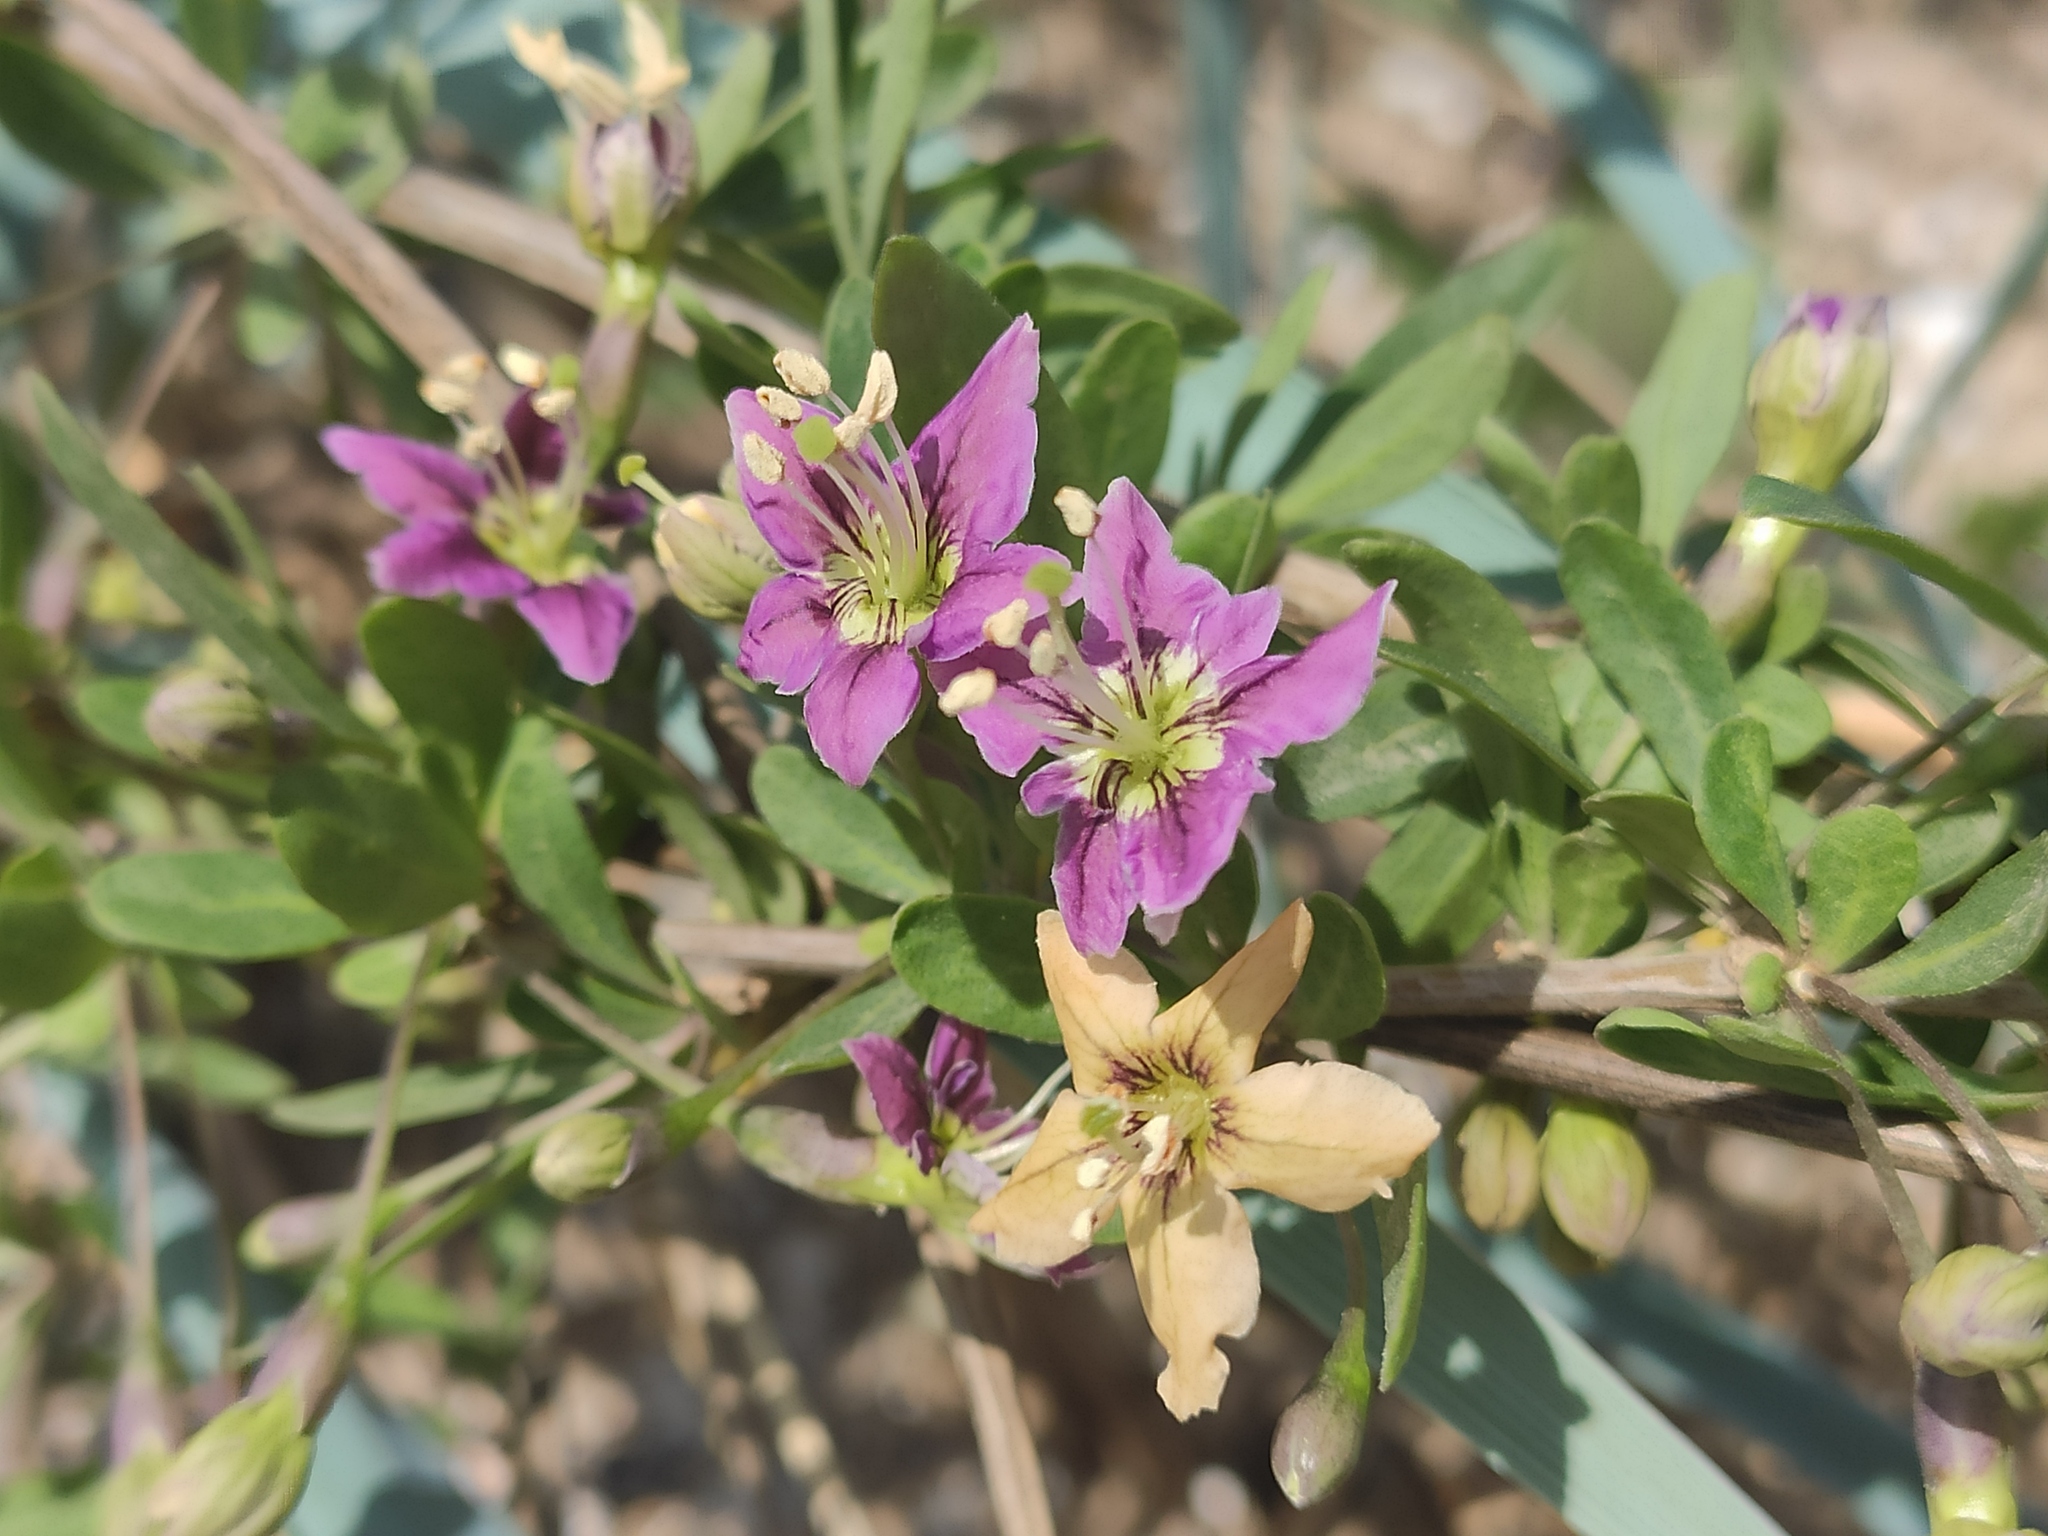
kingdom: Plantae
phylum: Tracheophyta
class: Magnoliopsida
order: Solanales
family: Solanaceae
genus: Lycium
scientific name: Lycium barbarum
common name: Duke of argyll's teaplant
